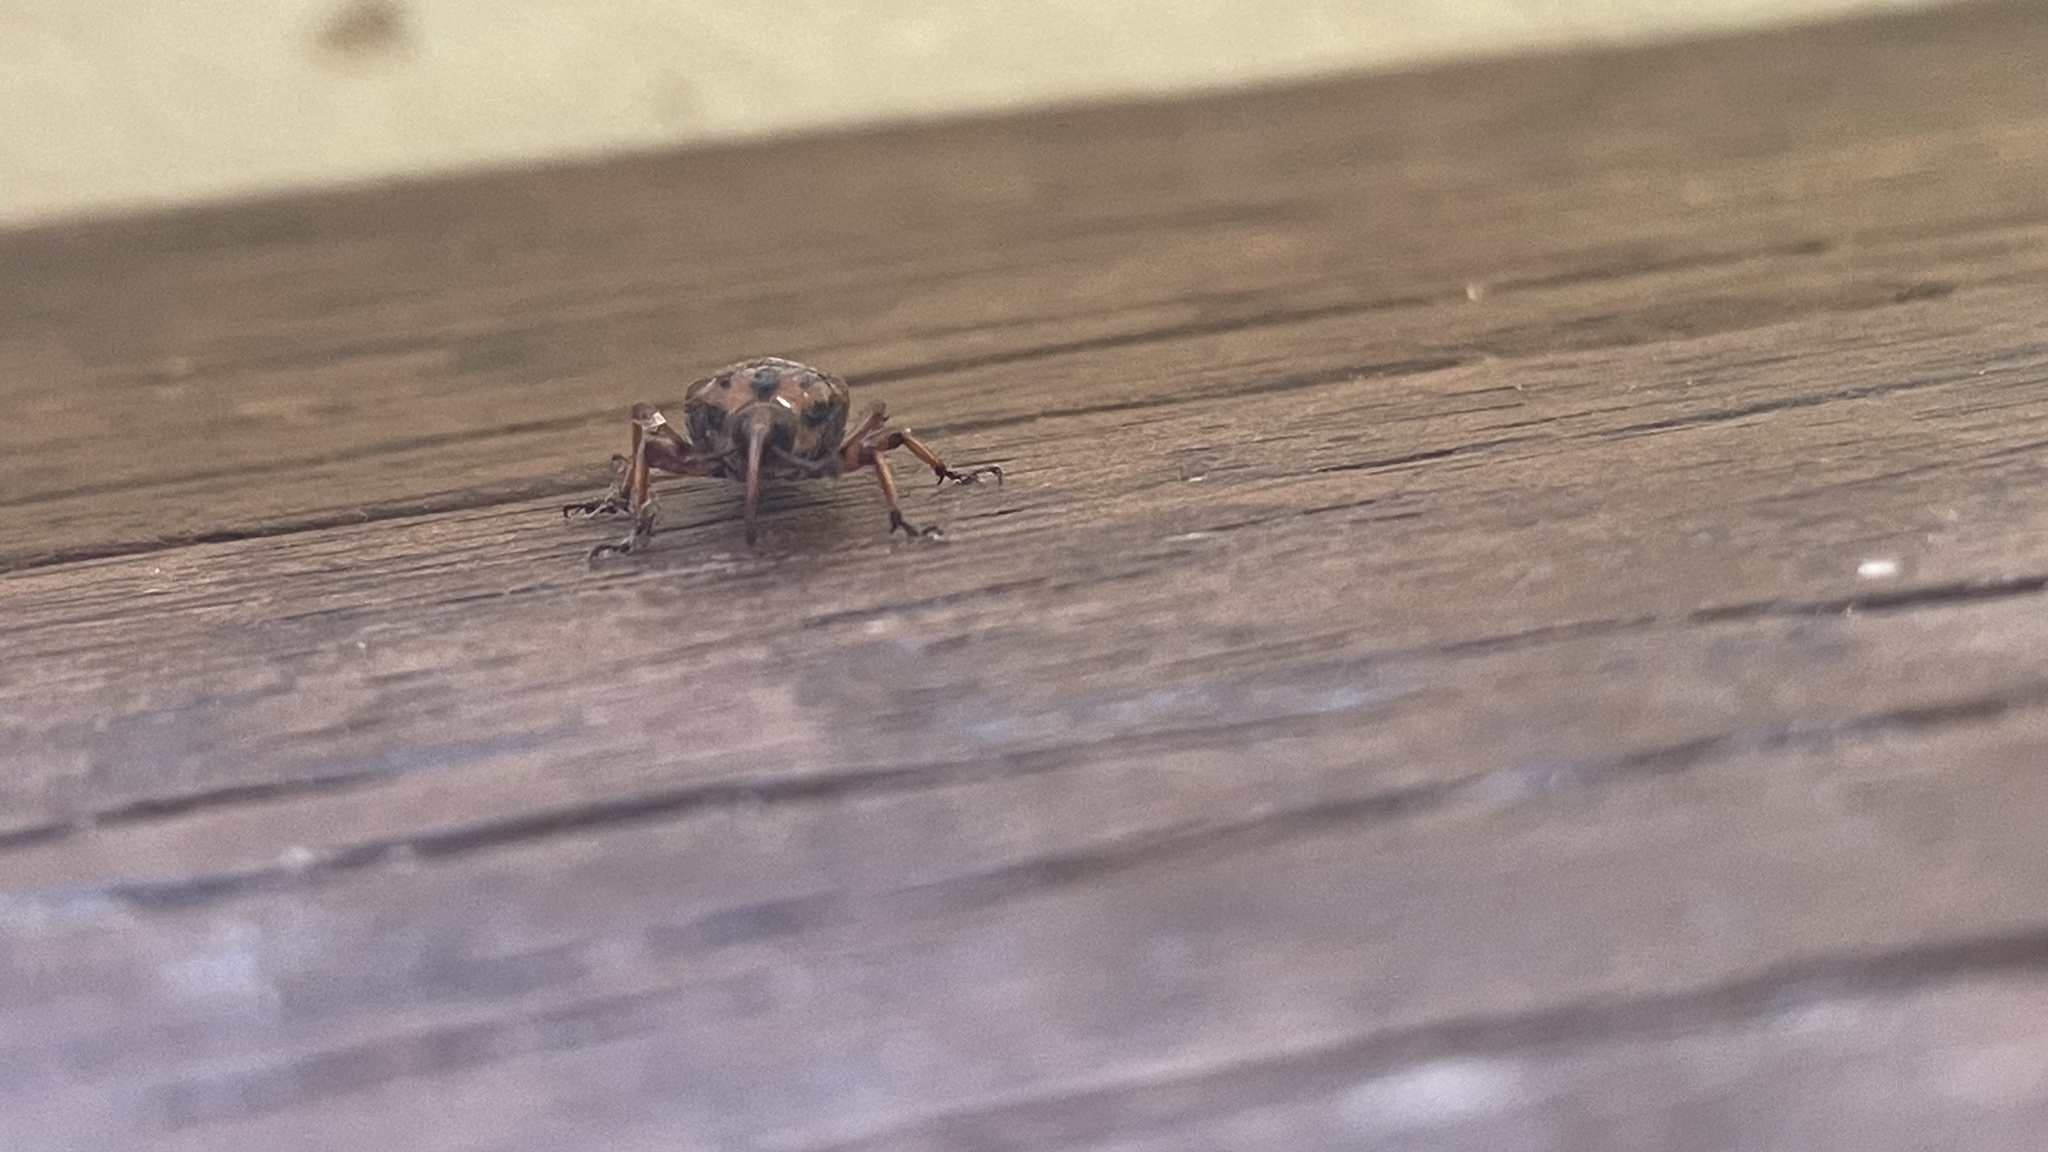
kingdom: Animalia
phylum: Arthropoda
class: Insecta
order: Coleoptera
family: Dryophthoridae
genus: Metamasius
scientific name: Metamasius hemipterus
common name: Weevil
